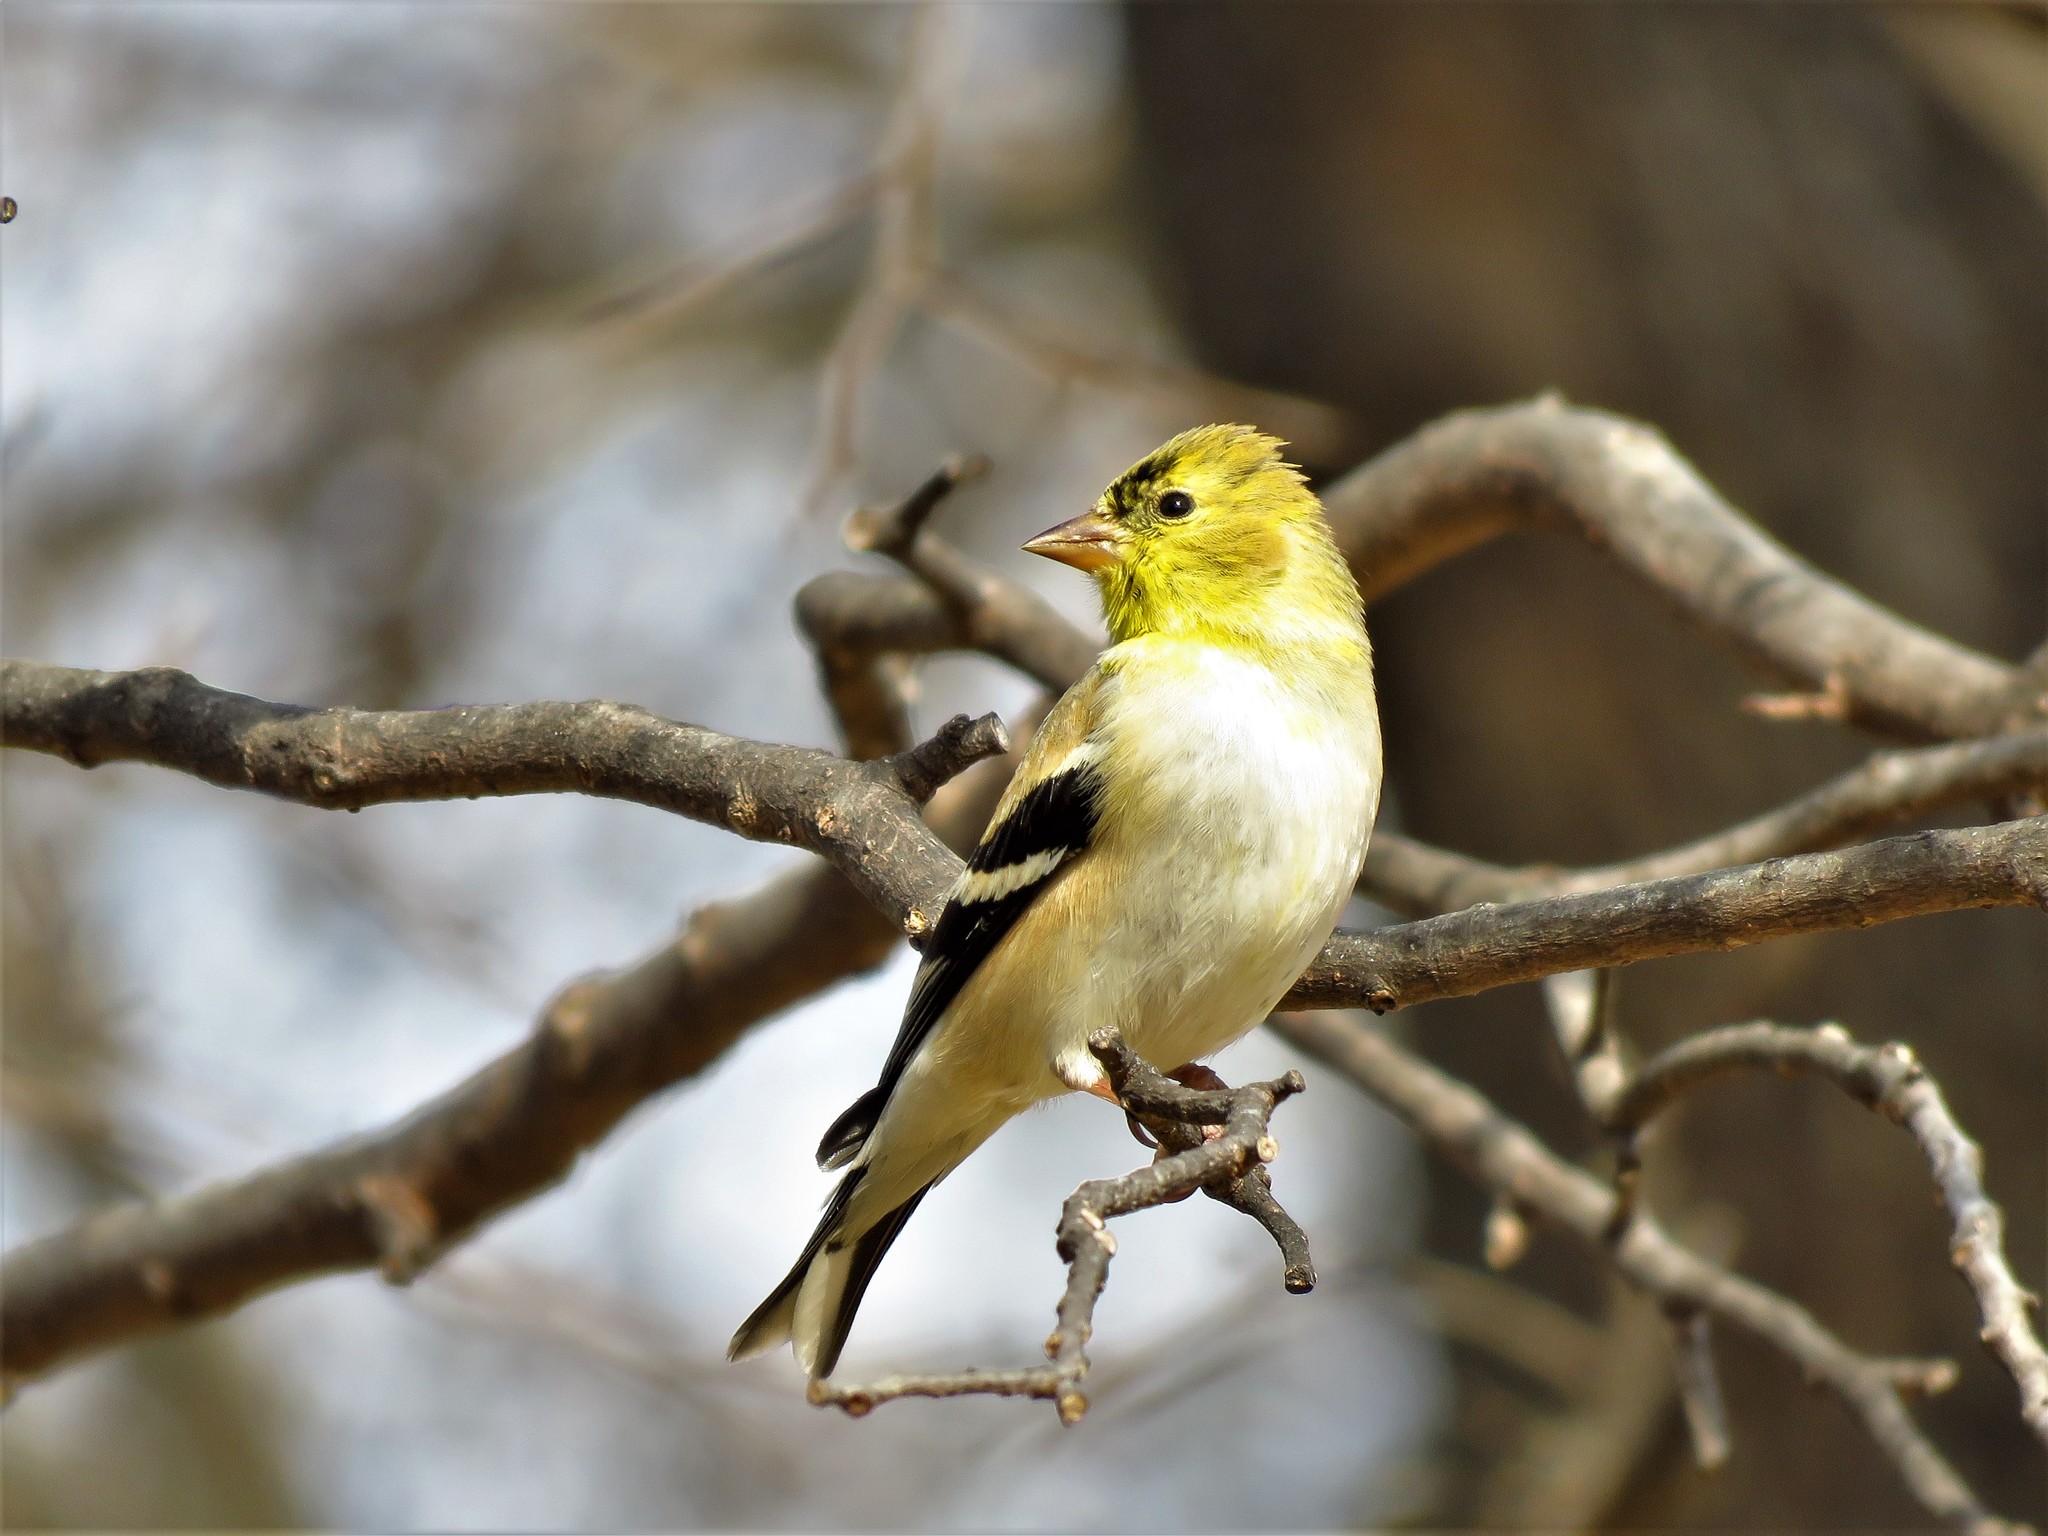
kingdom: Animalia
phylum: Chordata
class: Aves
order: Passeriformes
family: Fringillidae
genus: Spinus
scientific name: Spinus tristis
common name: American goldfinch
